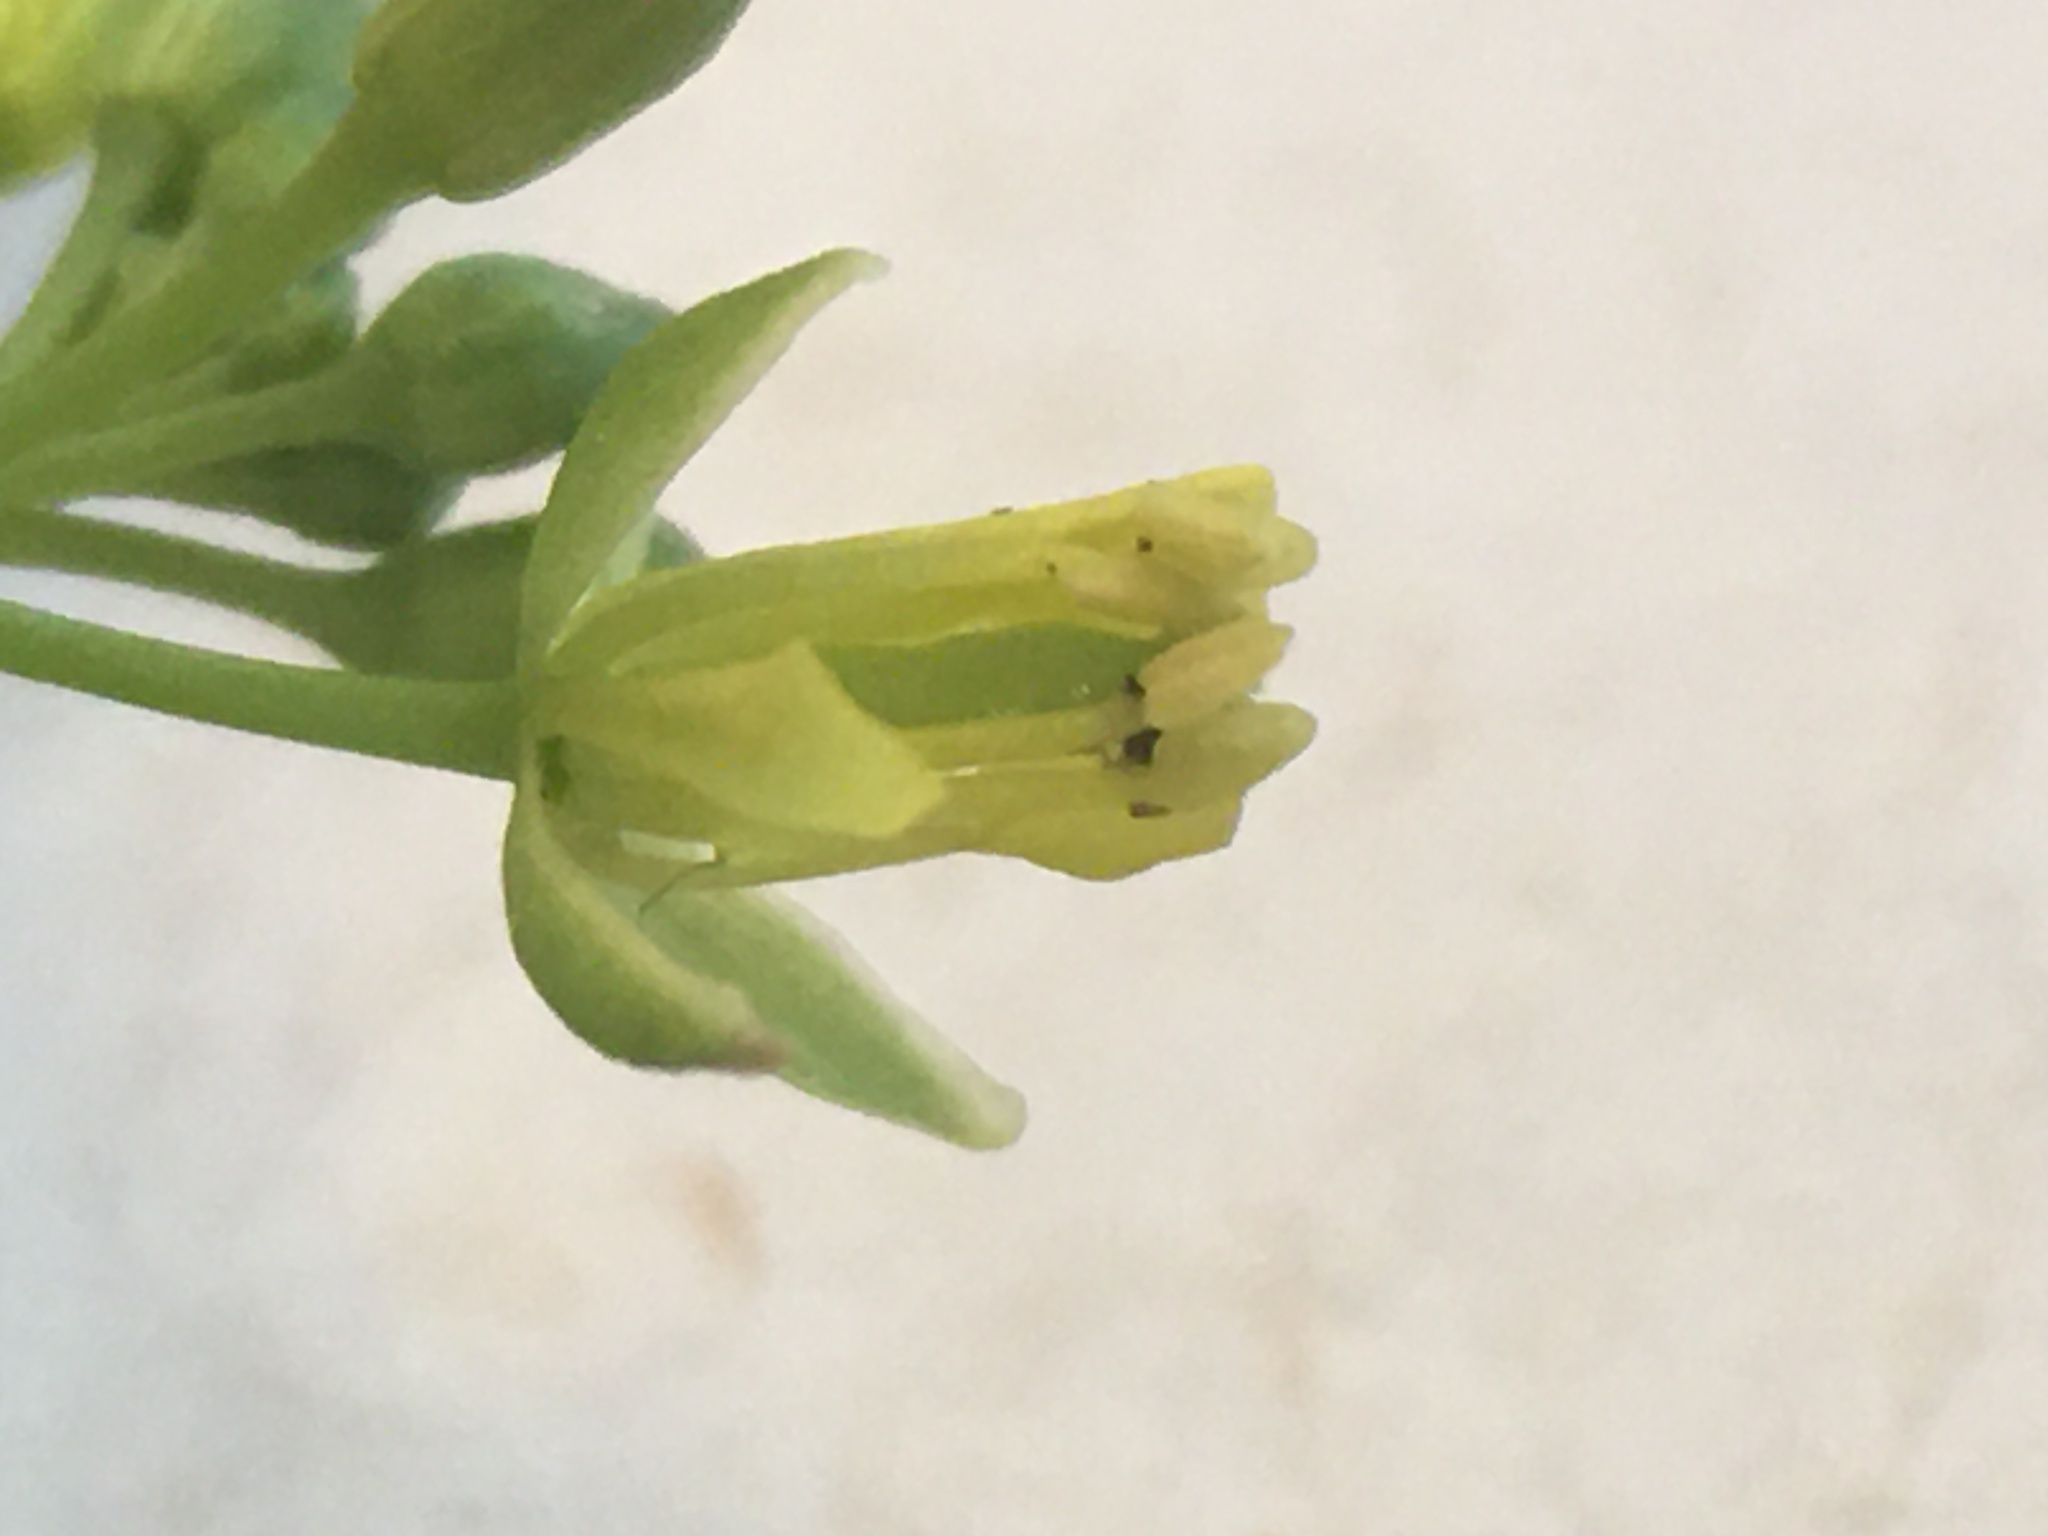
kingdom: Plantae
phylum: Tracheophyta
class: Magnoliopsida
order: Brassicales
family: Brassicaceae
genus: Rorippa
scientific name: Rorippa indica
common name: Variableleaf yellowcress
